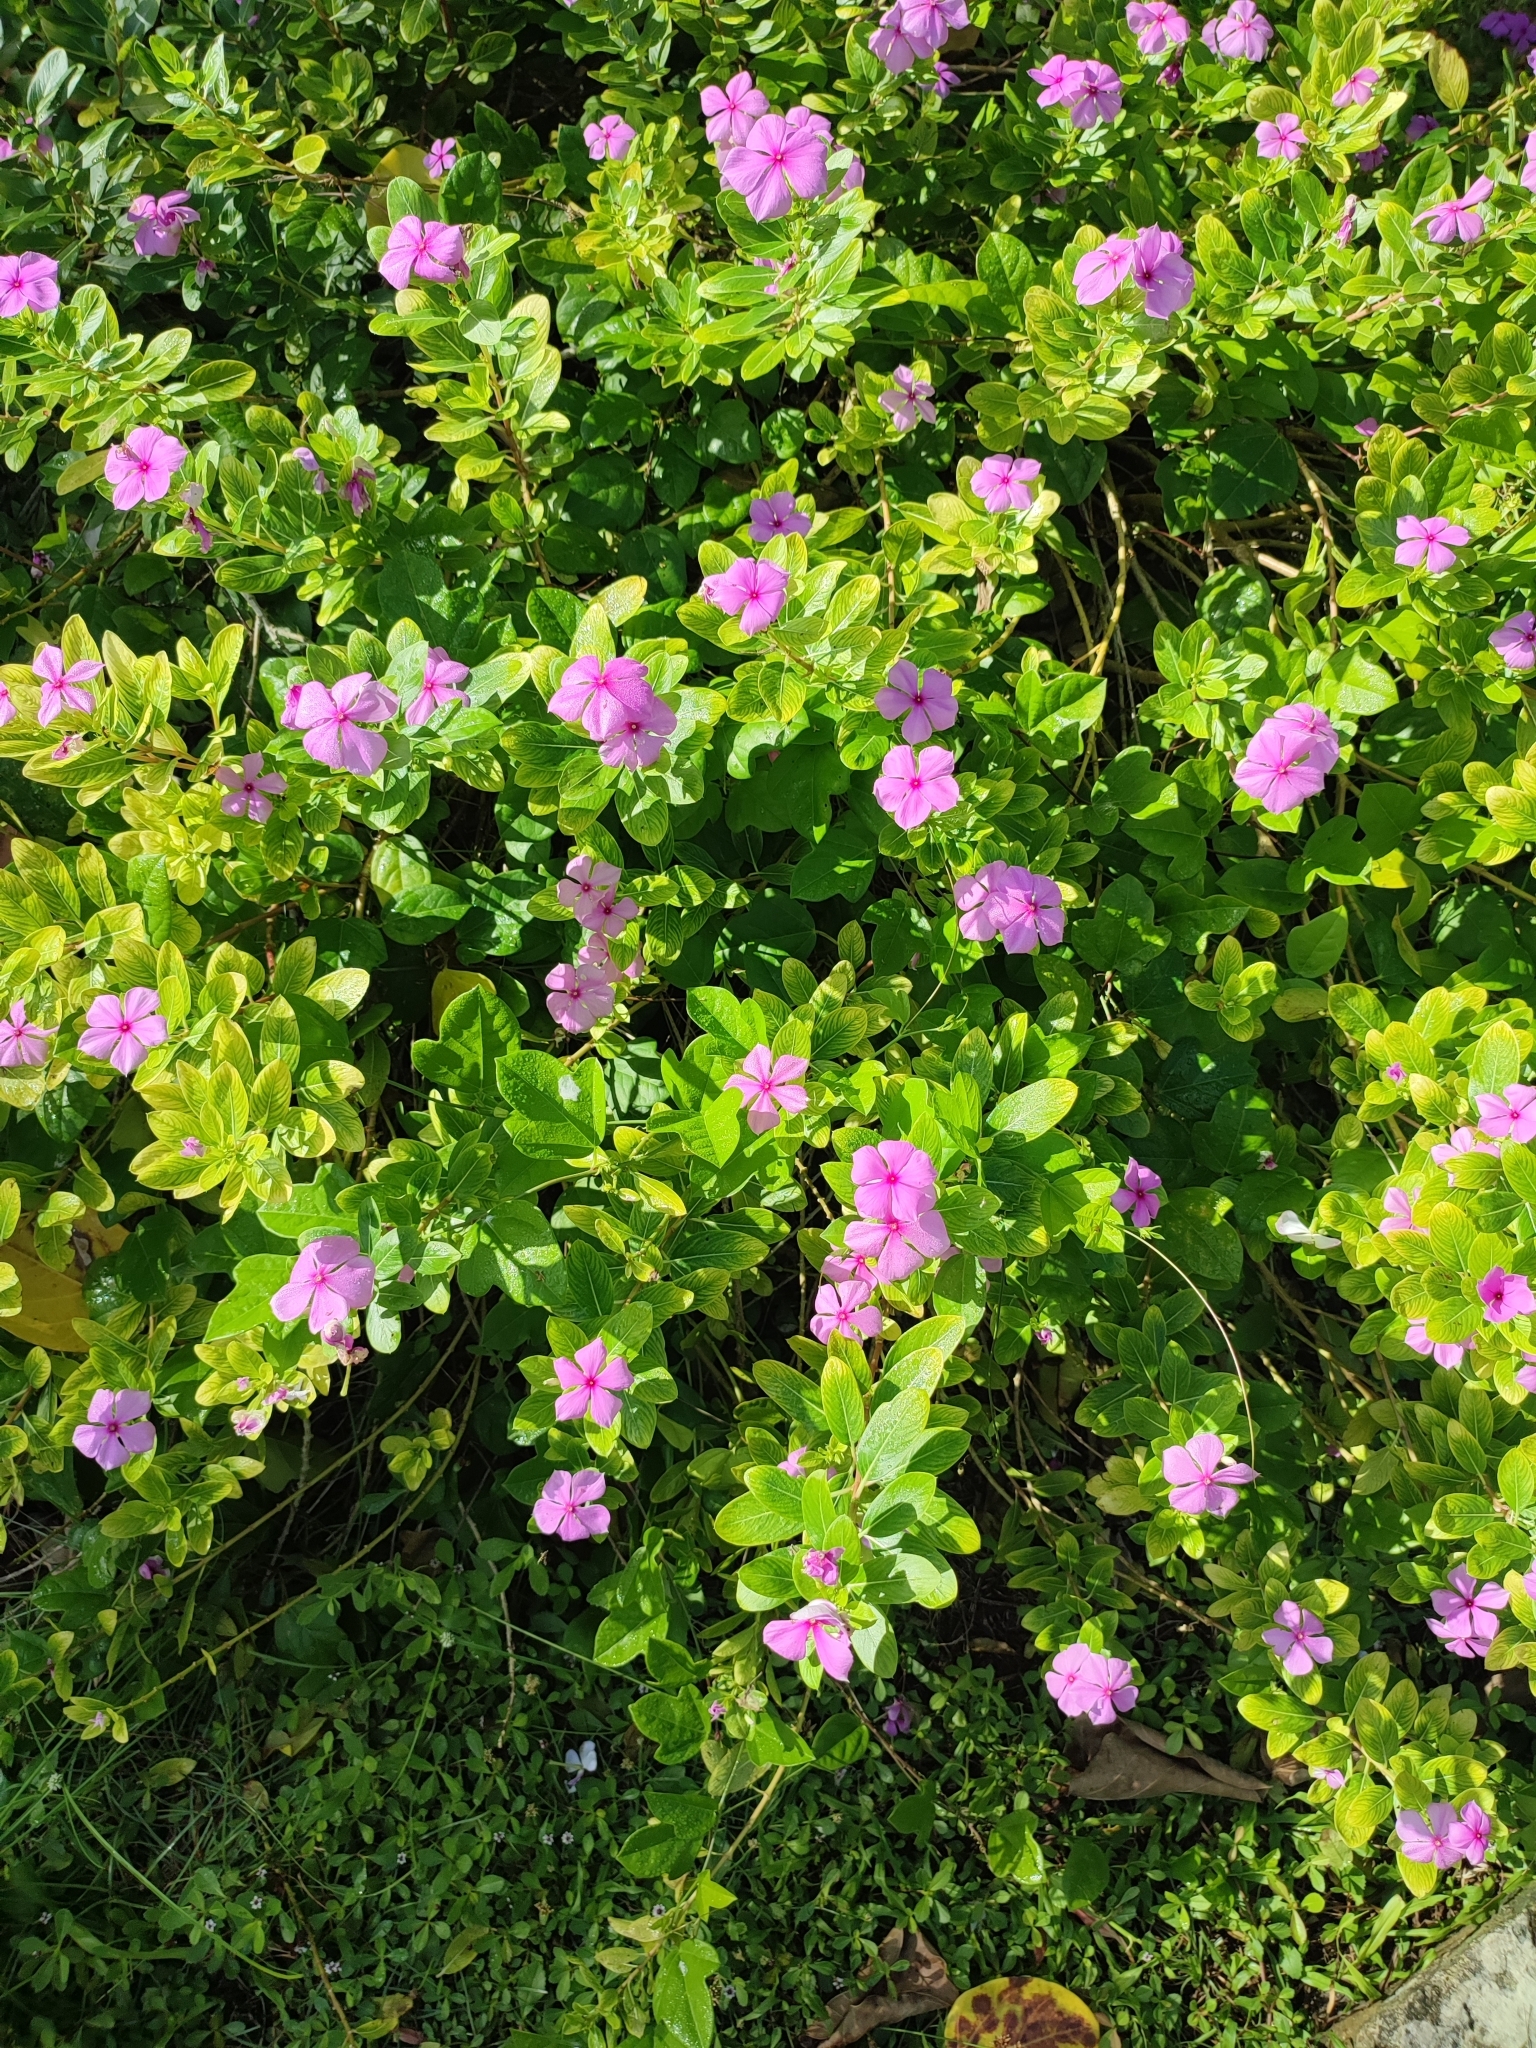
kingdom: Plantae
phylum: Tracheophyta
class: Magnoliopsida
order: Gentianales
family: Apocynaceae
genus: Catharanthus
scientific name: Catharanthus roseus
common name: Madagascar periwinkle
